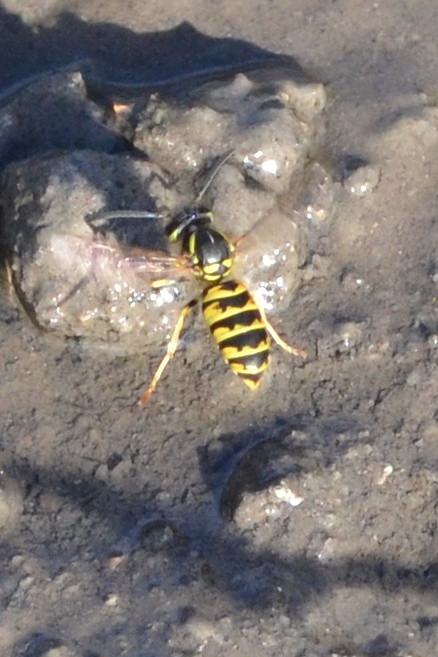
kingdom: Animalia
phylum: Arthropoda
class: Insecta
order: Hymenoptera
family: Vespidae
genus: Vespula
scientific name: Vespula vulgaris
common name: Common wasp
